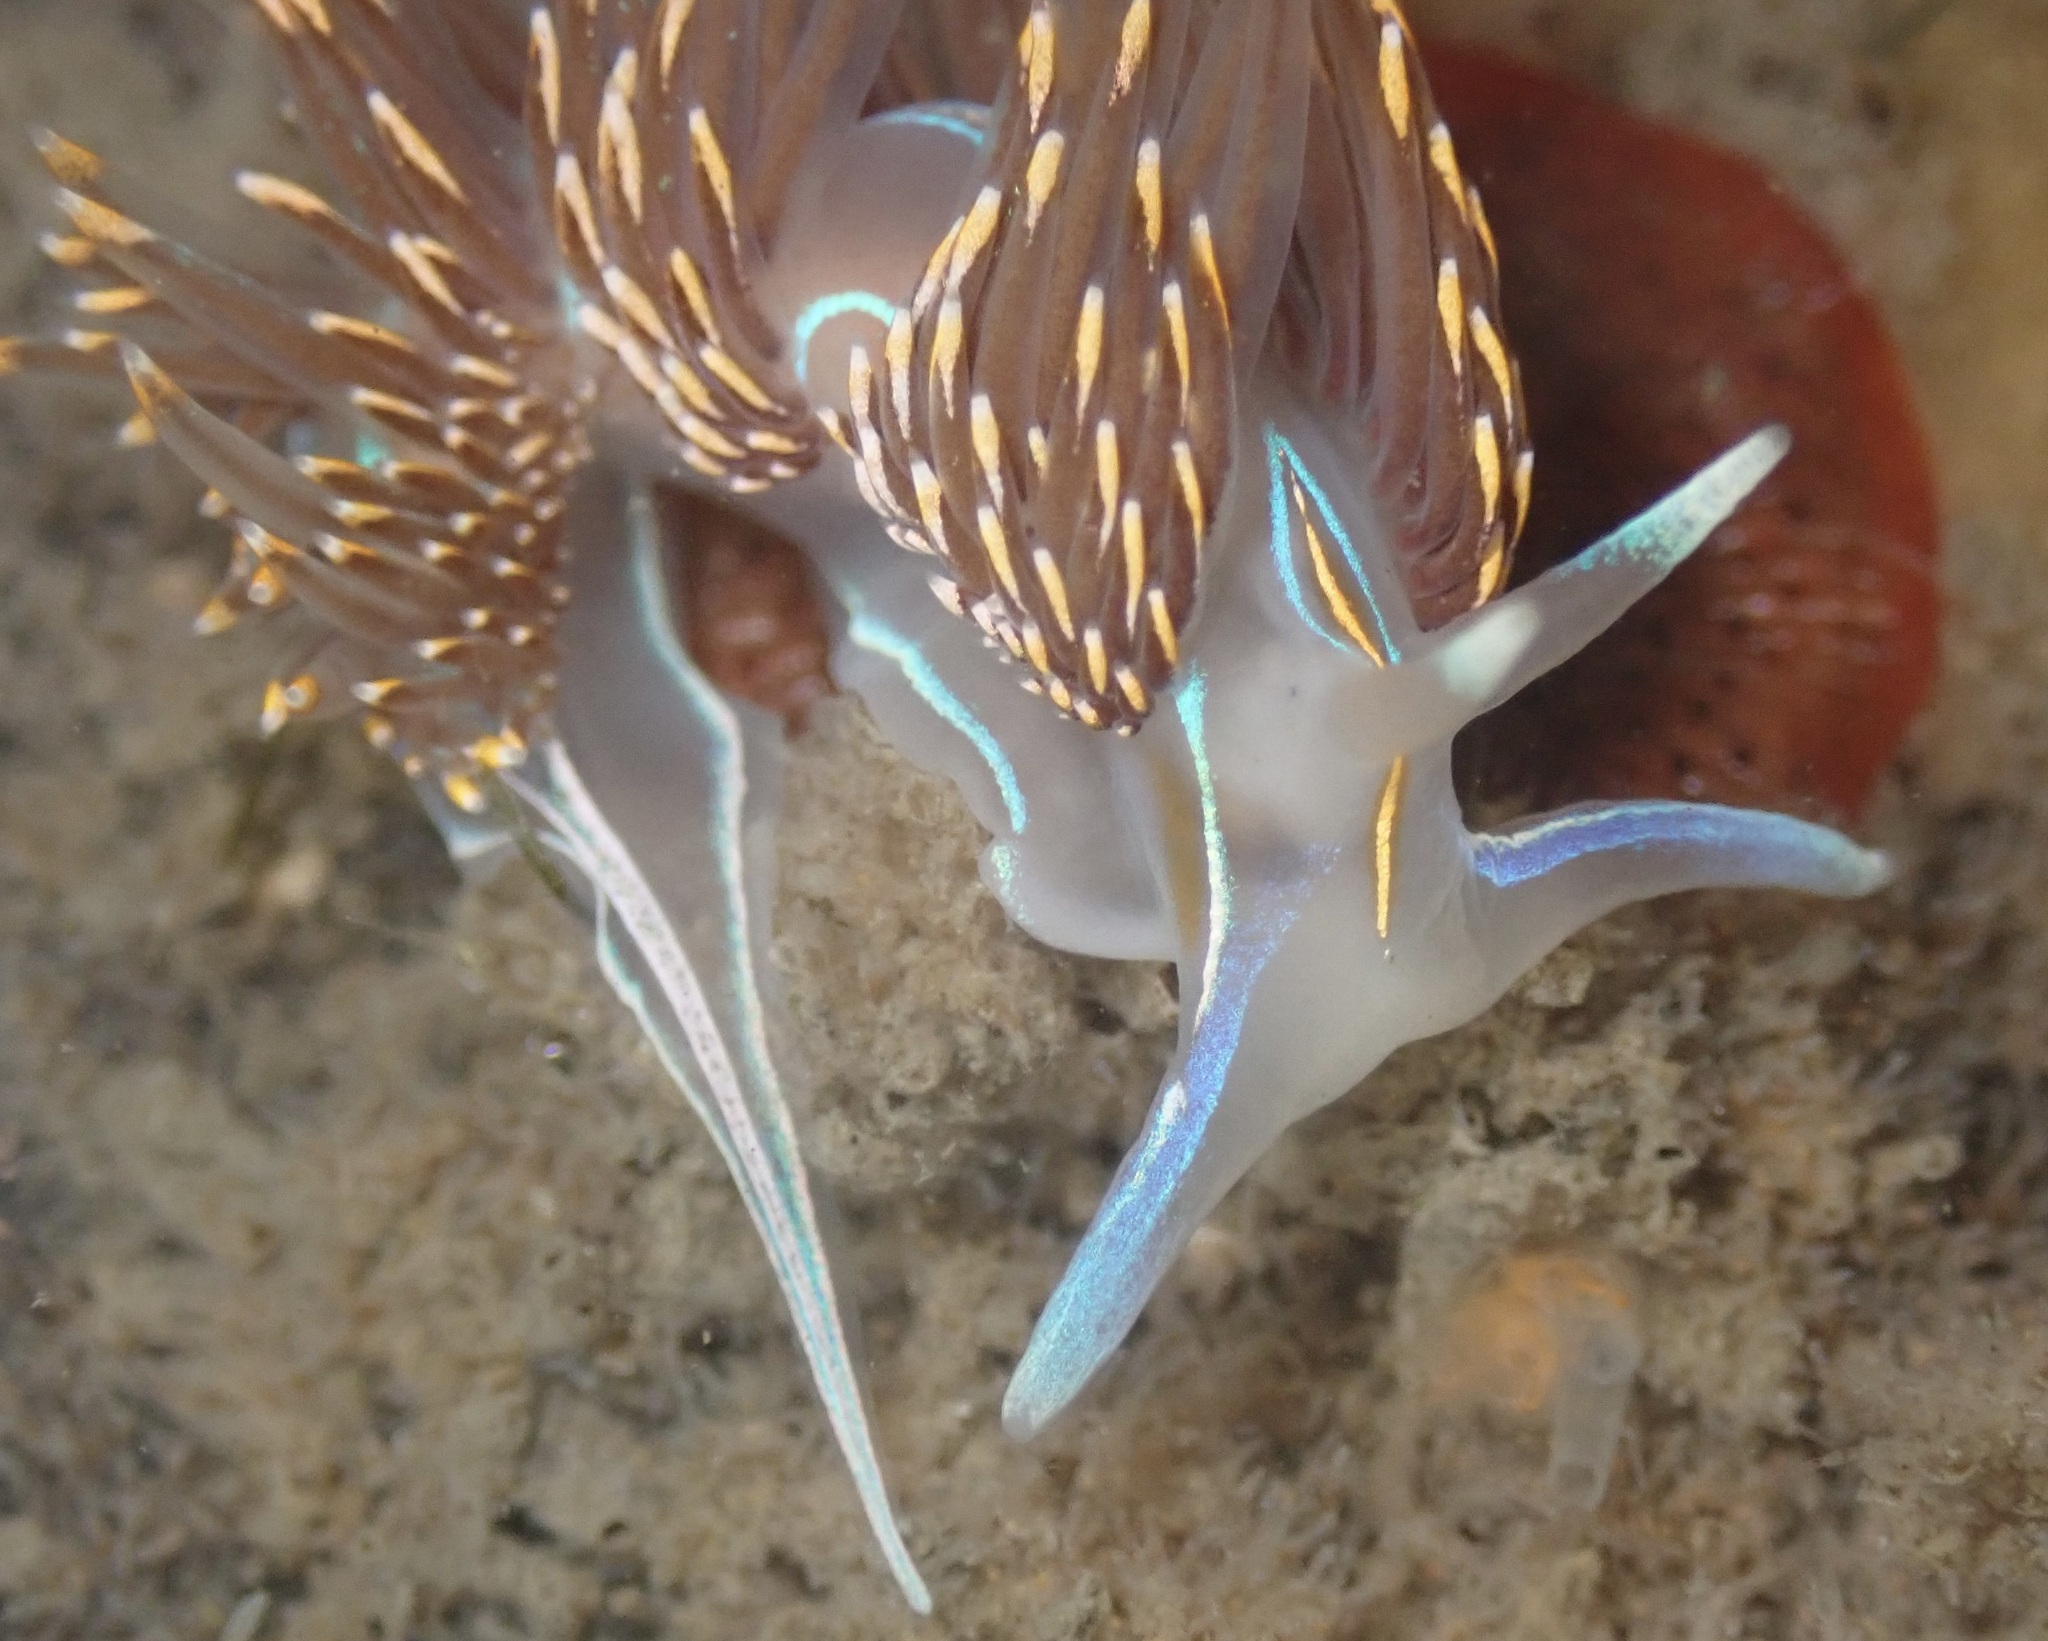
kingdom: Animalia
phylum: Mollusca
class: Gastropoda
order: Nudibranchia
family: Myrrhinidae
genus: Hermissenda
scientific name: Hermissenda opalescens
